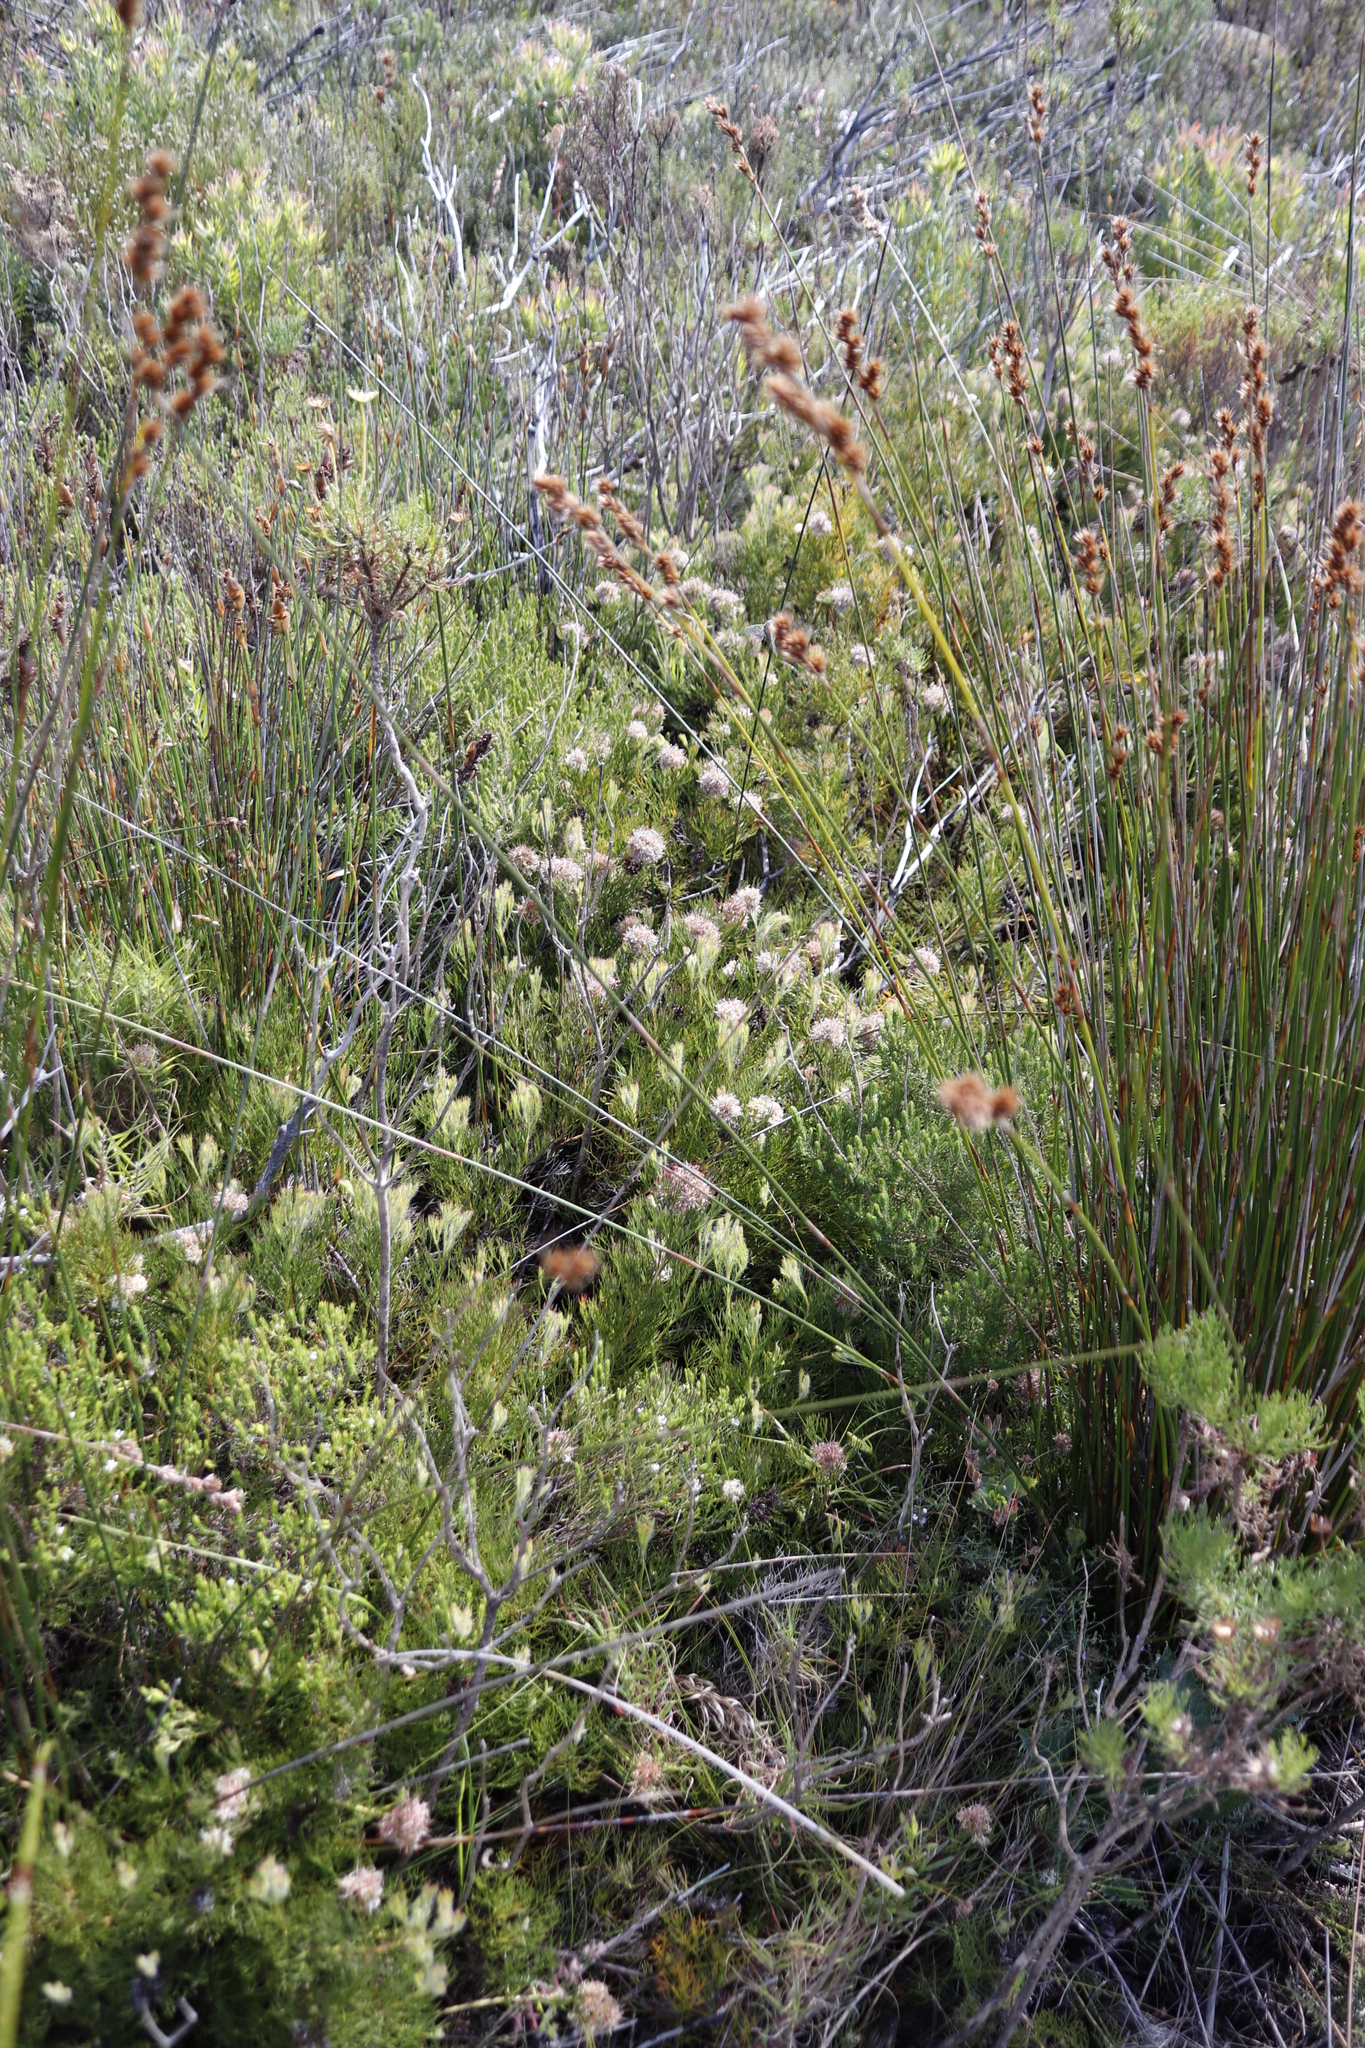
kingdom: Plantae
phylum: Tracheophyta
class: Magnoliopsida
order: Proteales
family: Proteaceae
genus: Serruria
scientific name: Serruria collina
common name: Lost spiderhead
